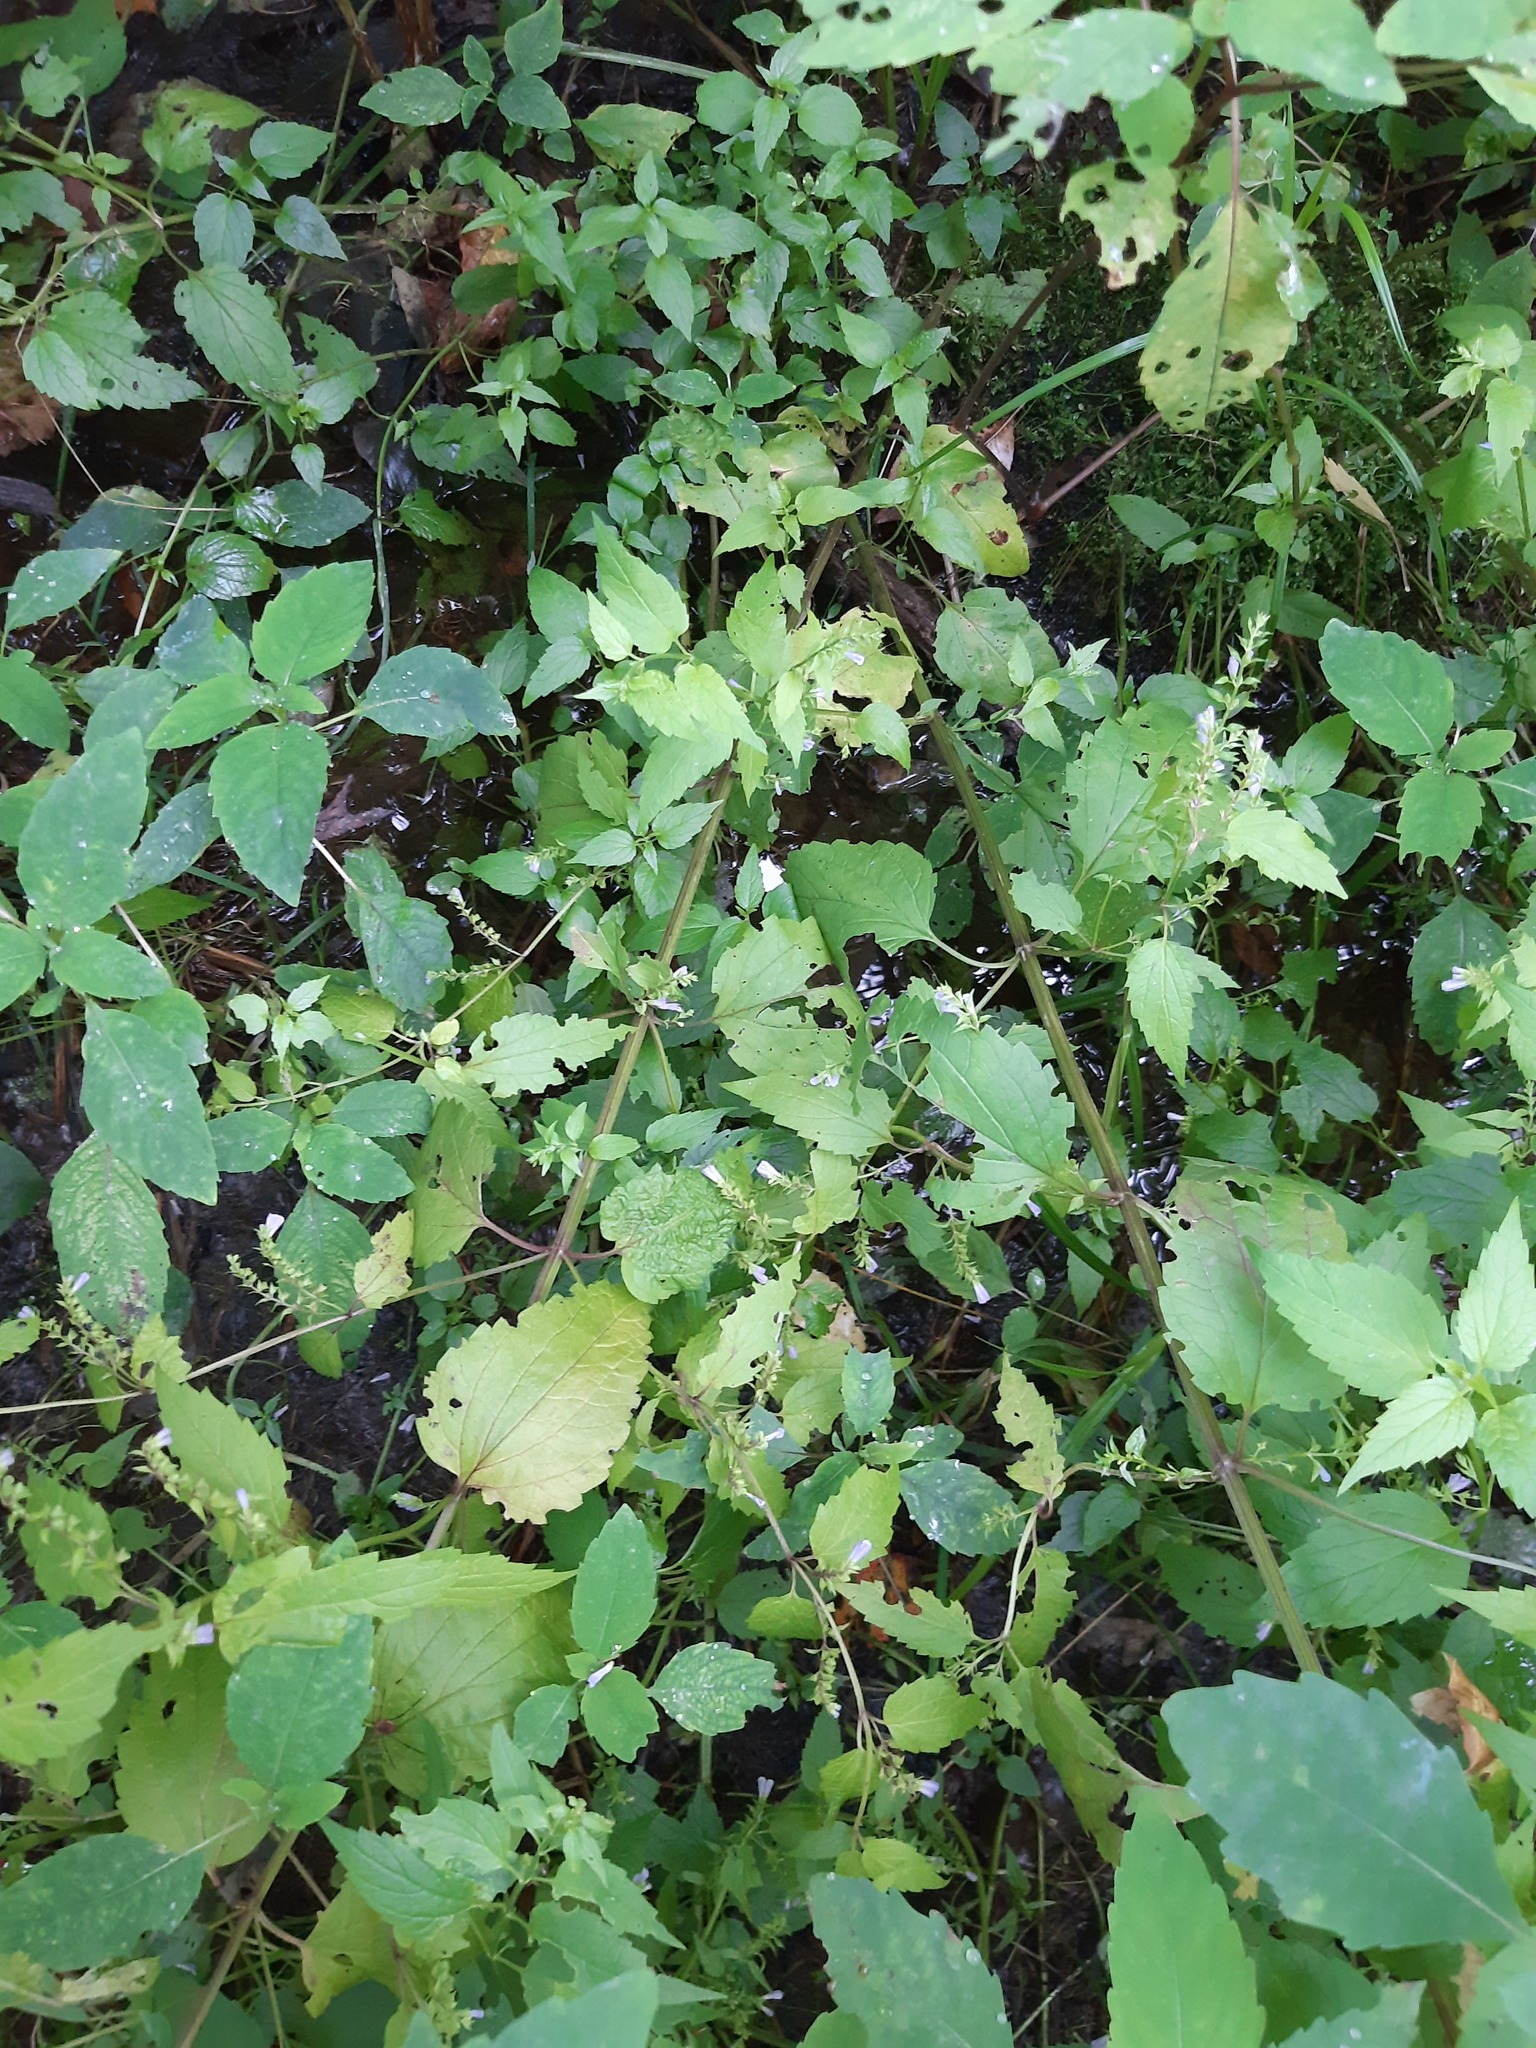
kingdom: Plantae
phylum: Tracheophyta
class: Magnoliopsida
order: Lamiales
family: Lamiaceae
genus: Scutellaria
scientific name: Scutellaria lateriflora
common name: Blue skullcap
